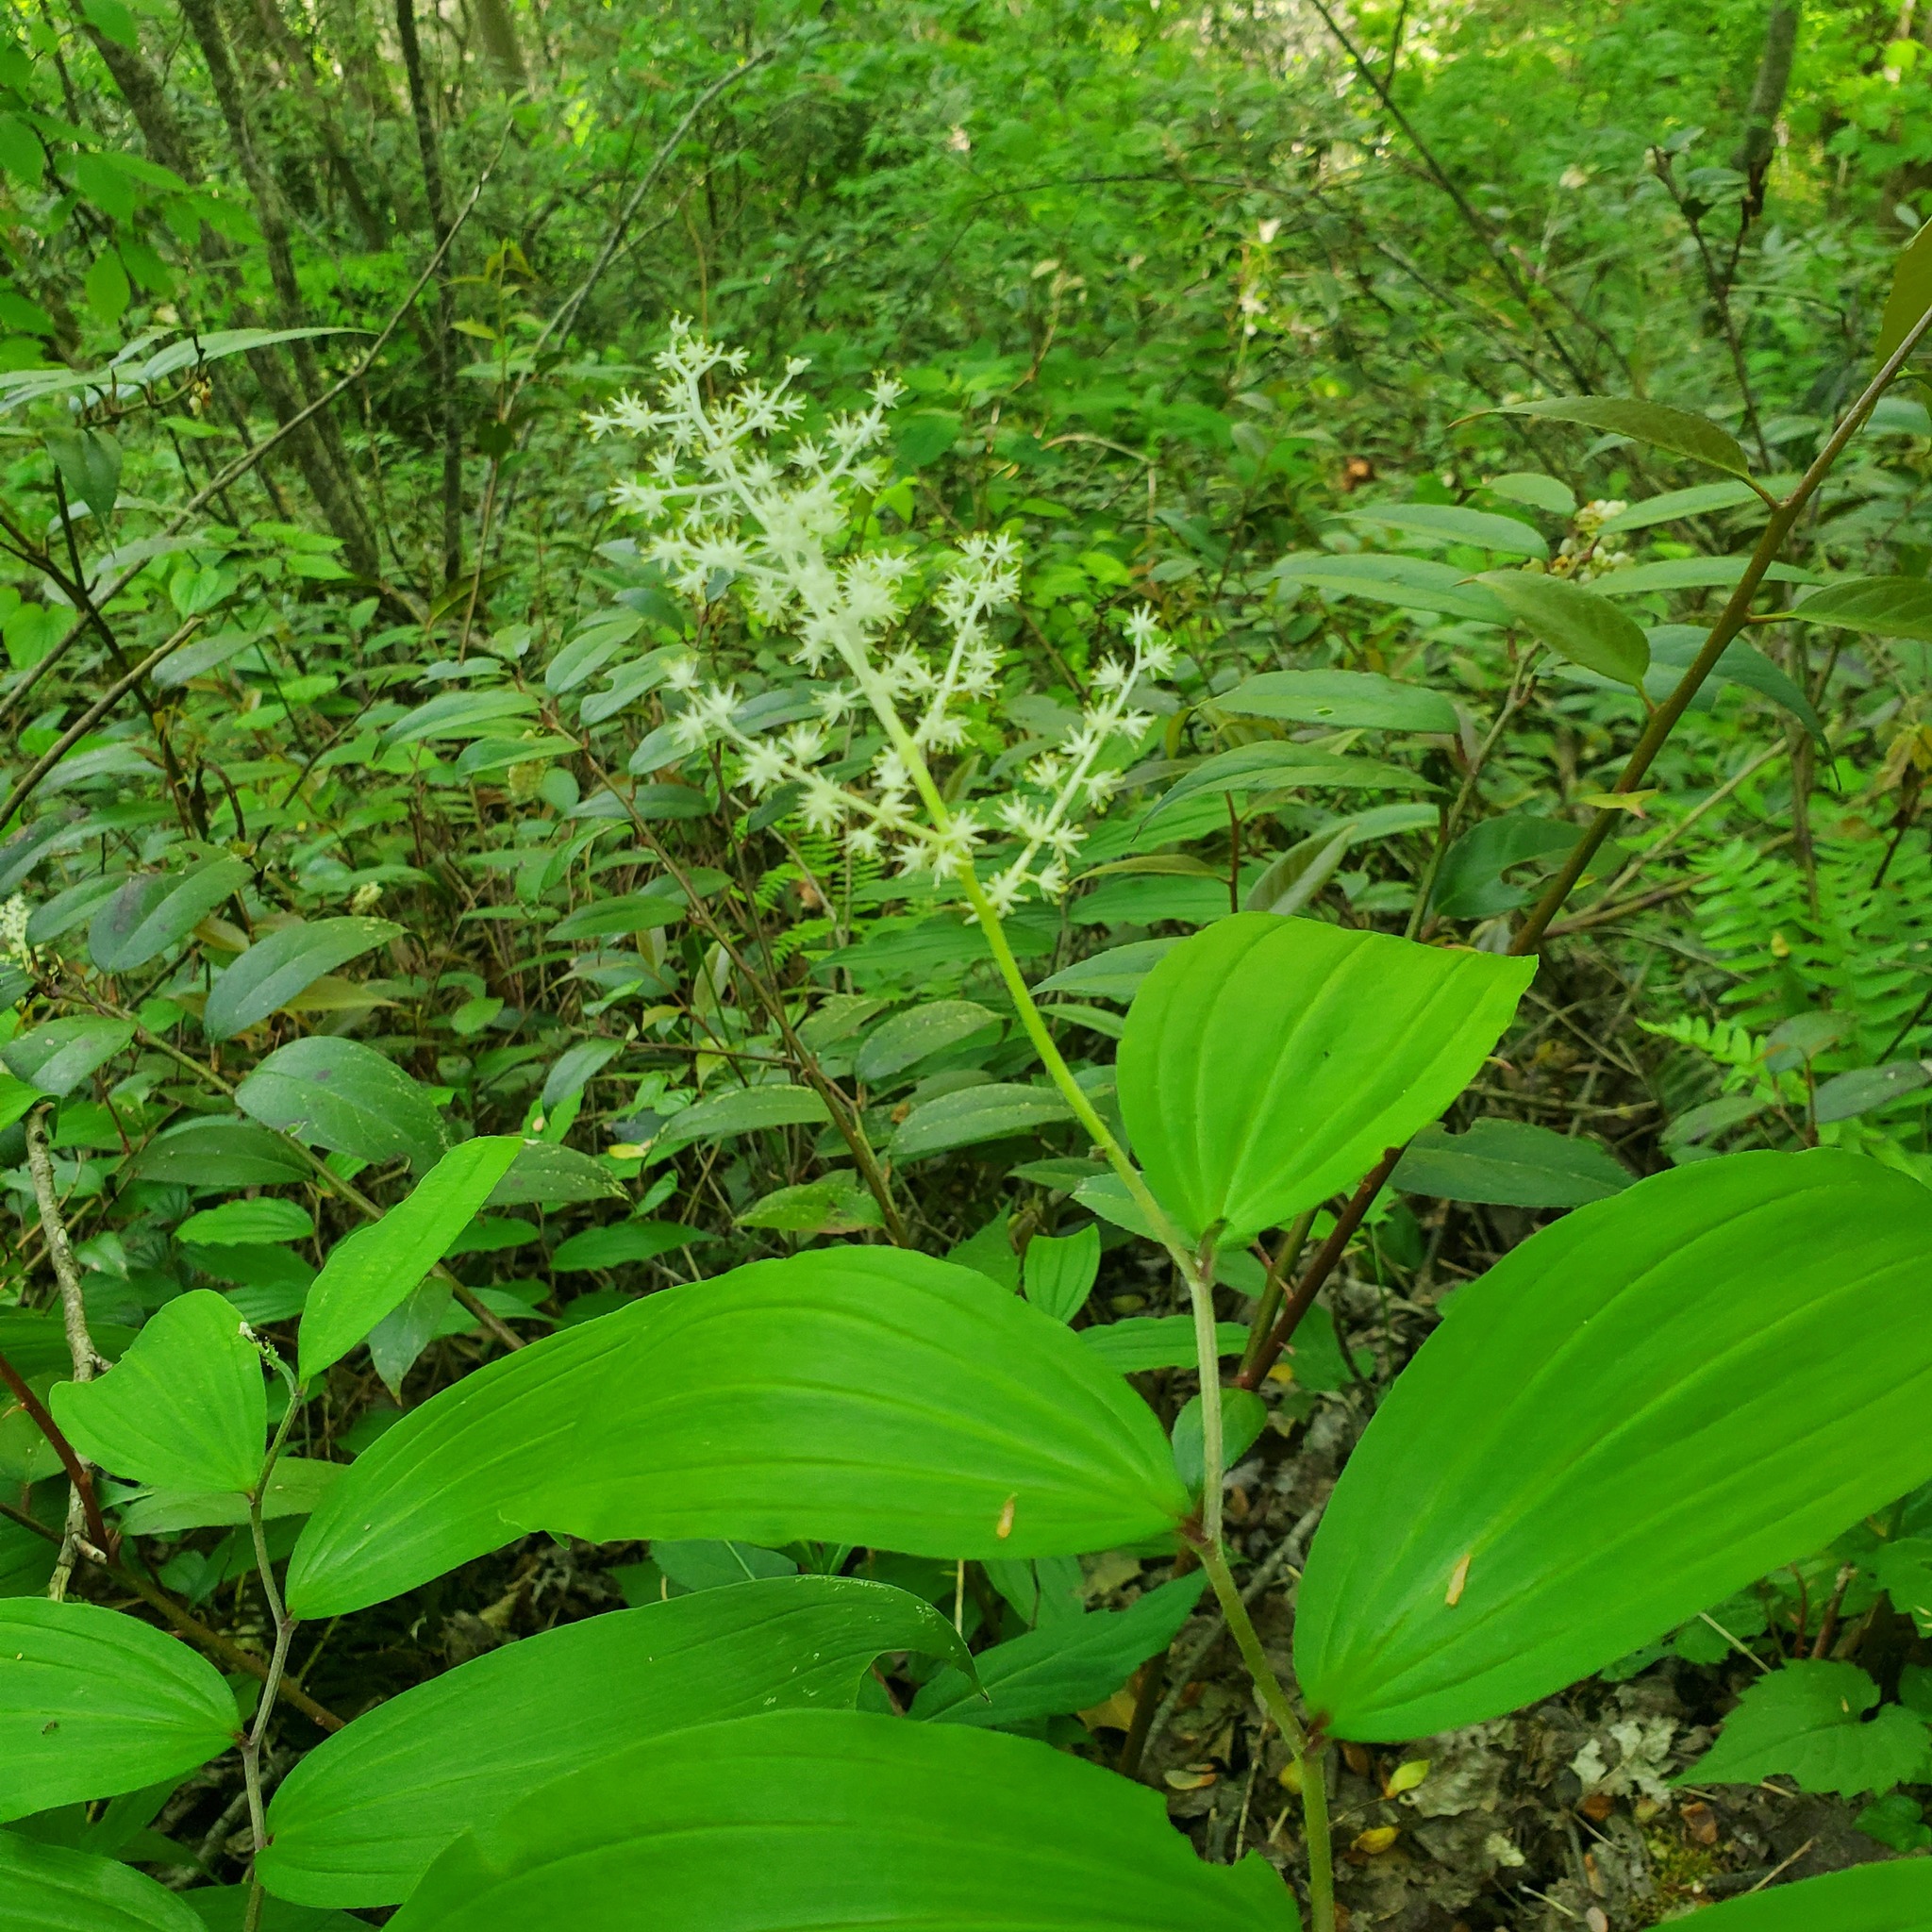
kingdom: Plantae
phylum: Tracheophyta
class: Liliopsida
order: Asparagales
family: Asparagaceae
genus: Maianthemum
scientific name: Maianthemum racemosum
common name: False spikenard
